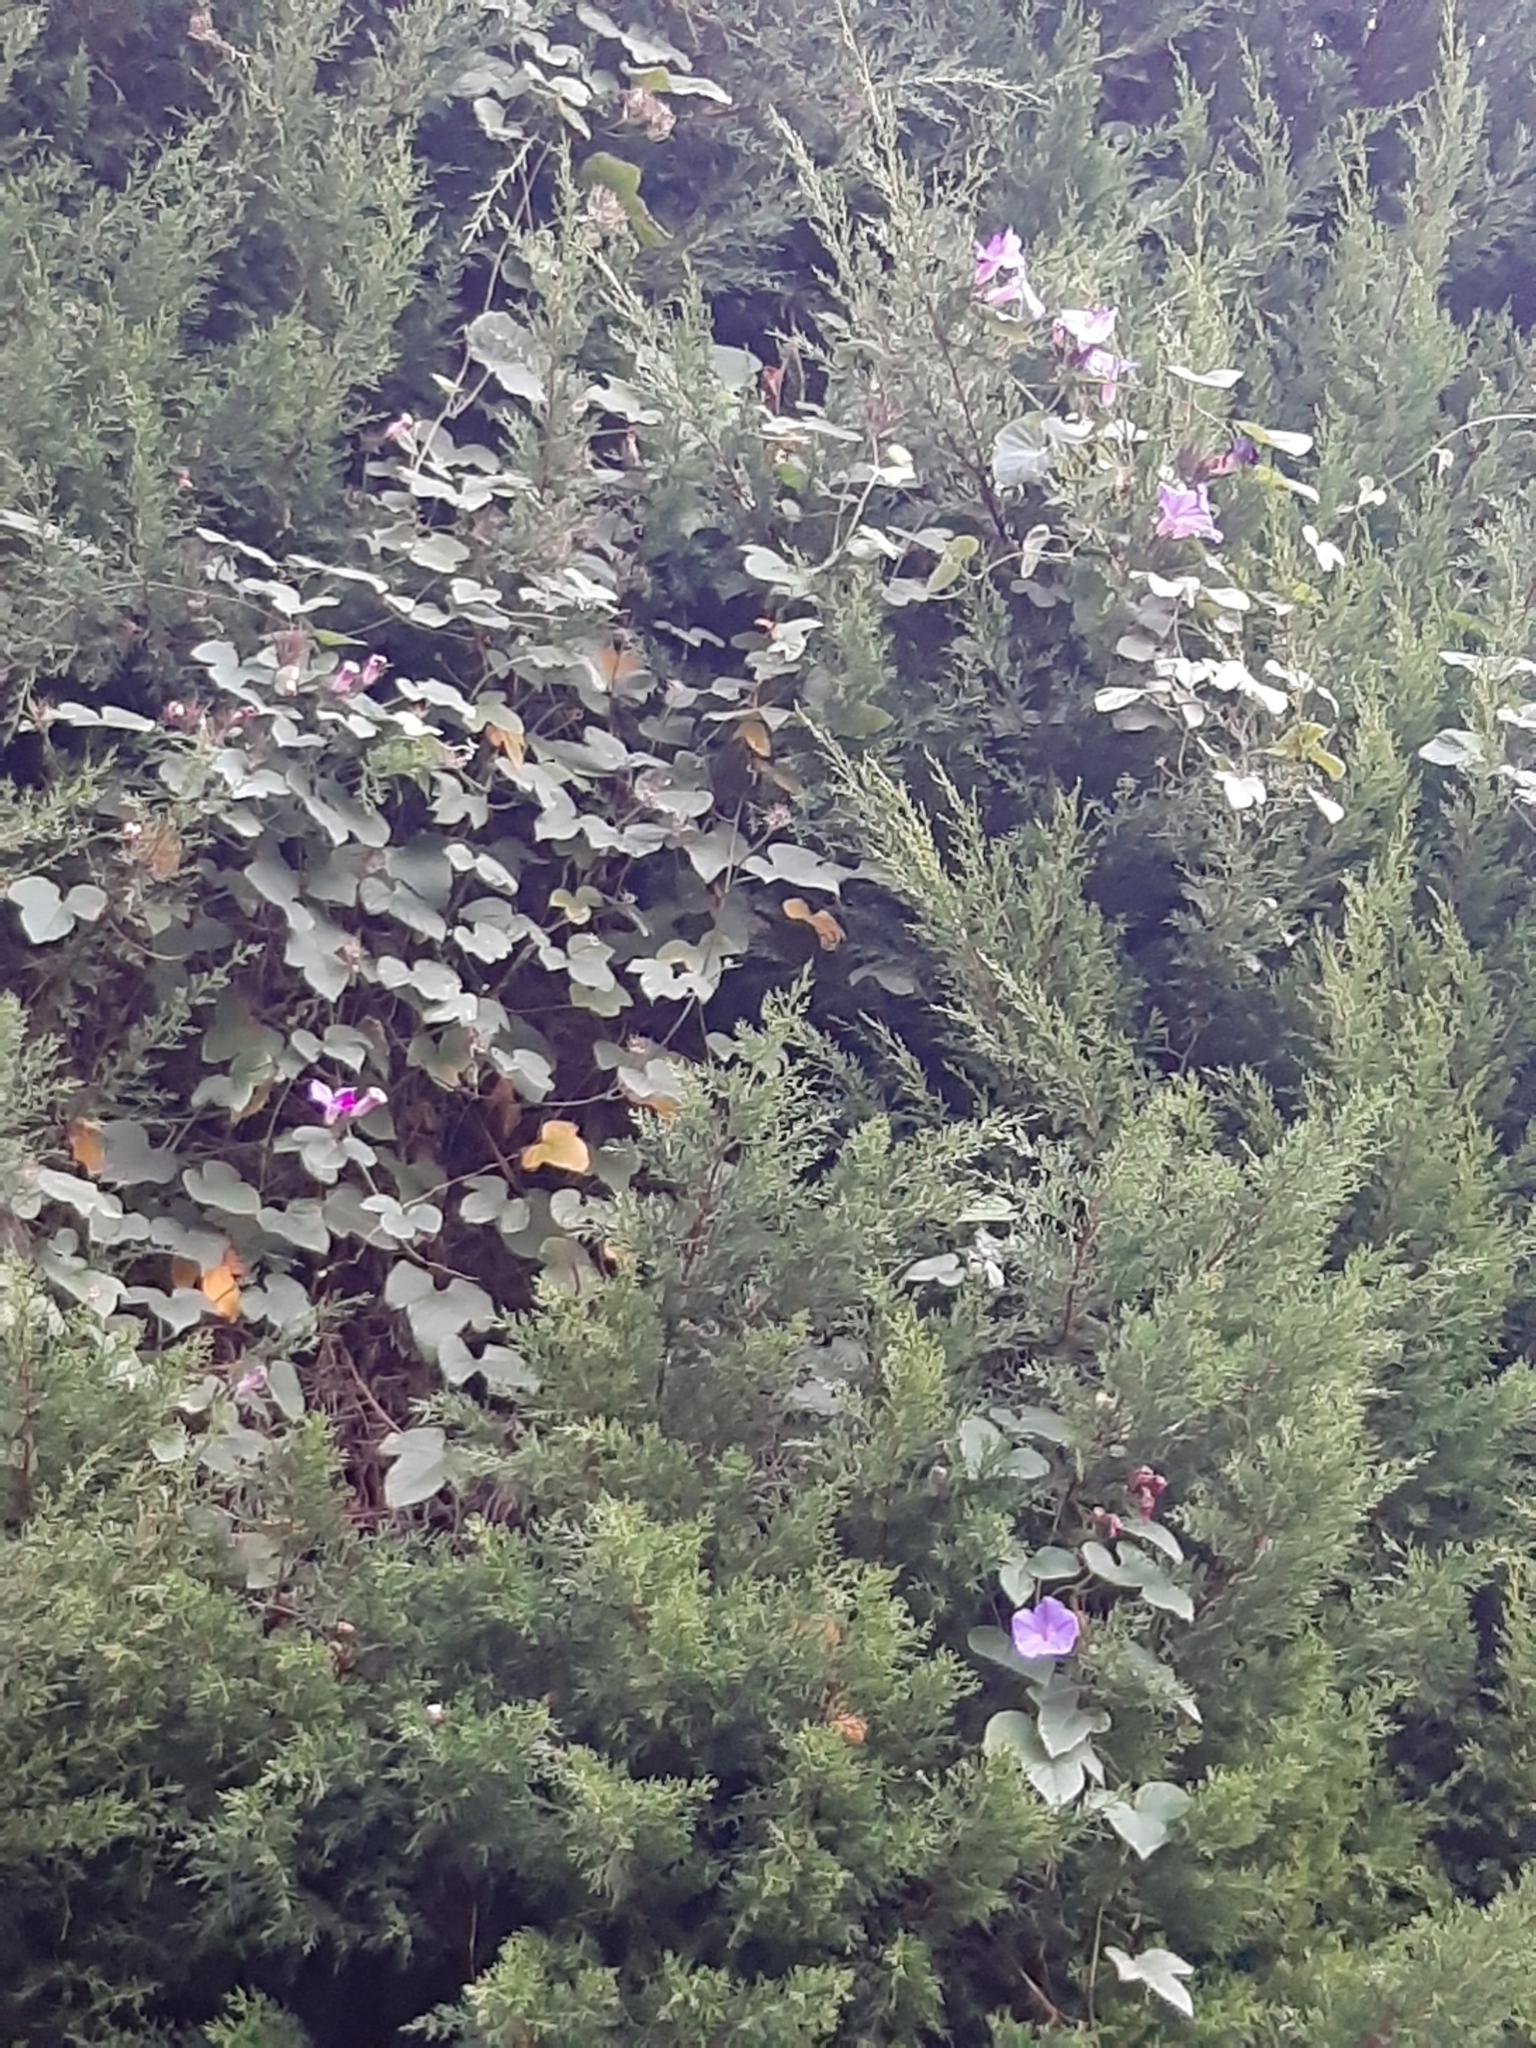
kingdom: Plantae
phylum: Tracheophyta
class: Magnoliopsida
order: Solanales
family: Convolvulaceae
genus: Ipomoea
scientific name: Ipomoea indica
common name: Blue dawnflower
